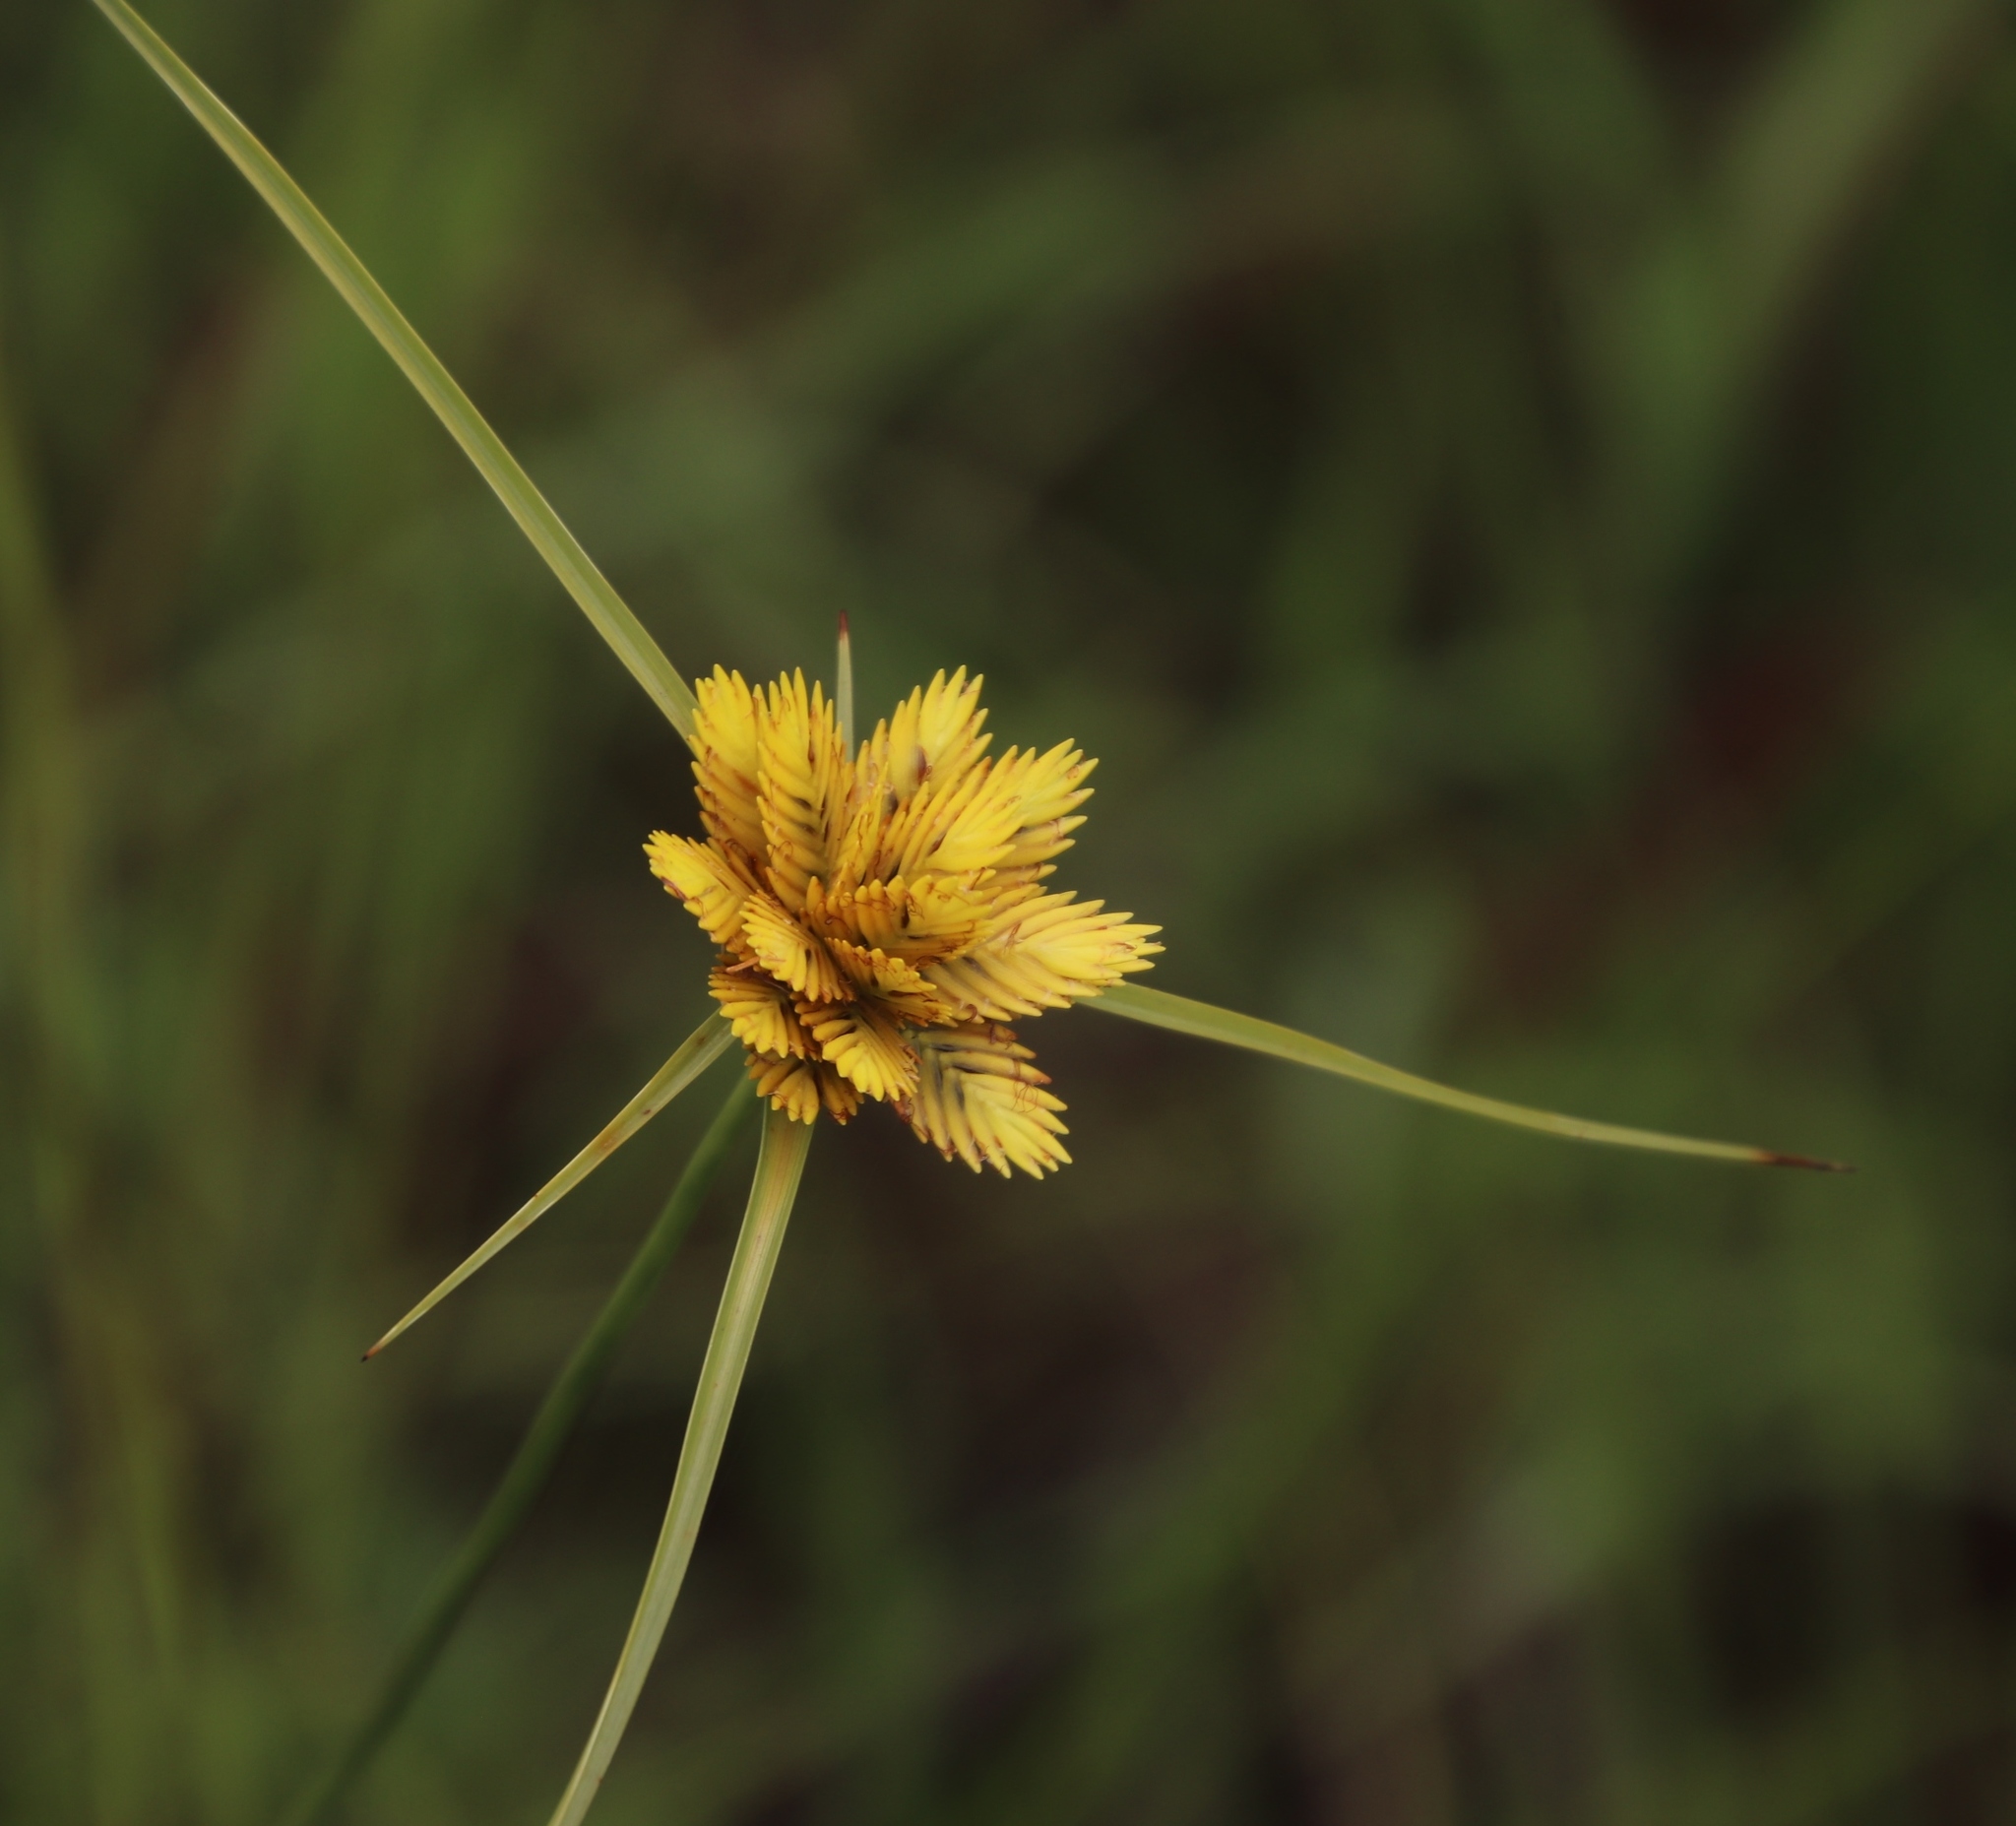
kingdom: Plantae
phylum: Tracheophyta
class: Liliopsida
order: Poales
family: Cyperaceae
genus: Cyperus
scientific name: Cyperus sphaerocephalus
